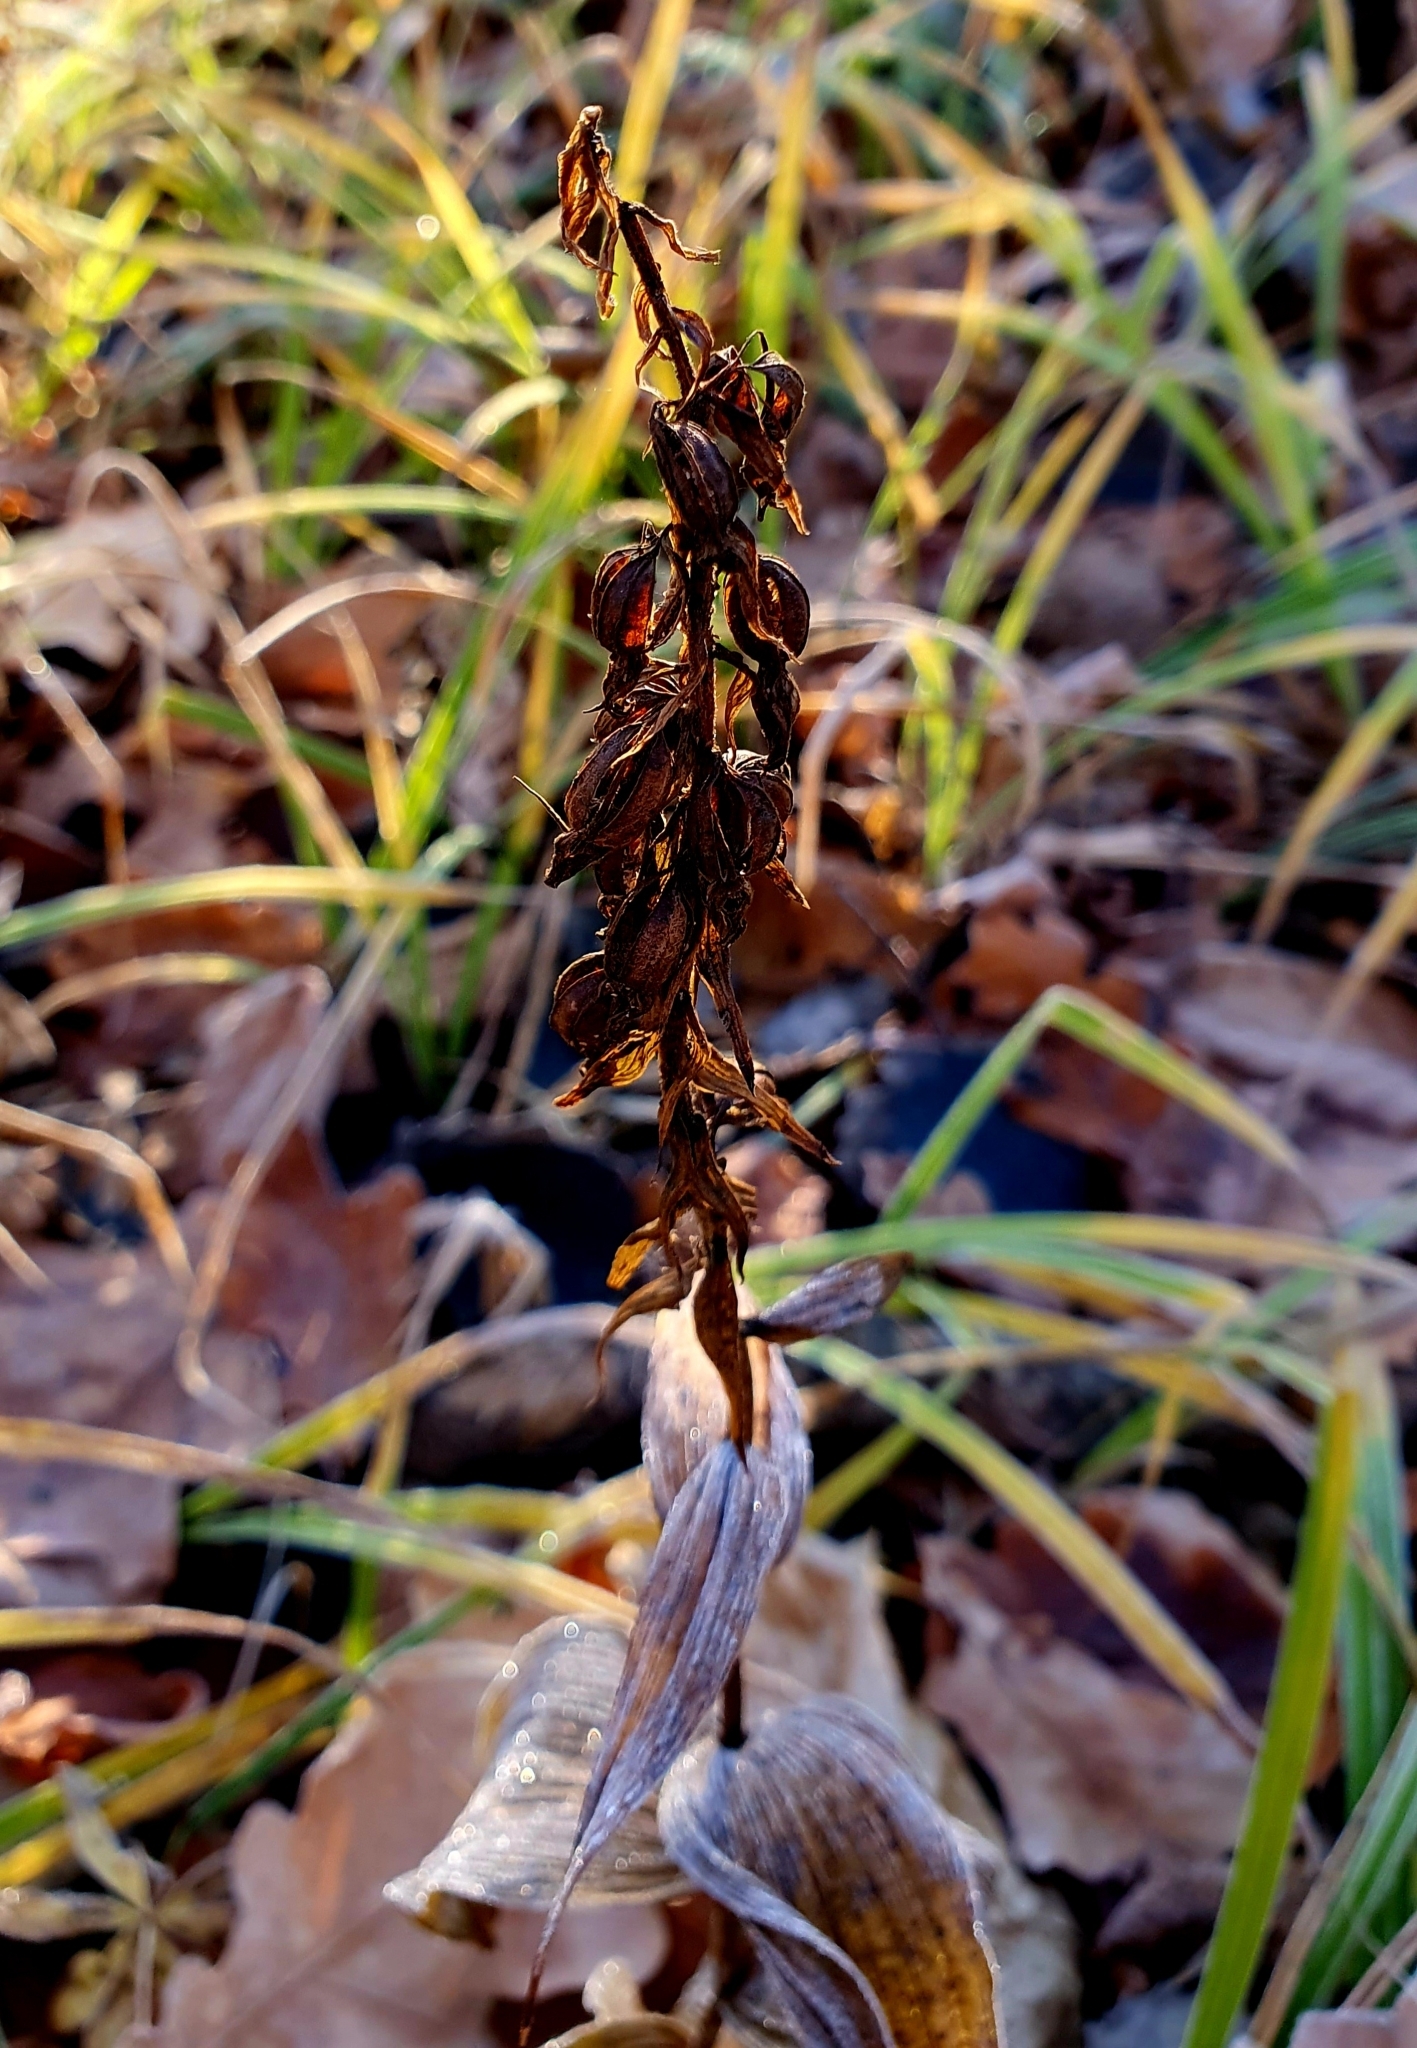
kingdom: Plantae
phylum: Tracheophyta
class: Liliopsida
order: Asparagales
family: Orchidaceae
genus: Epipactis
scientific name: Epipactis helleborine
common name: Broad-leaved helleborine
